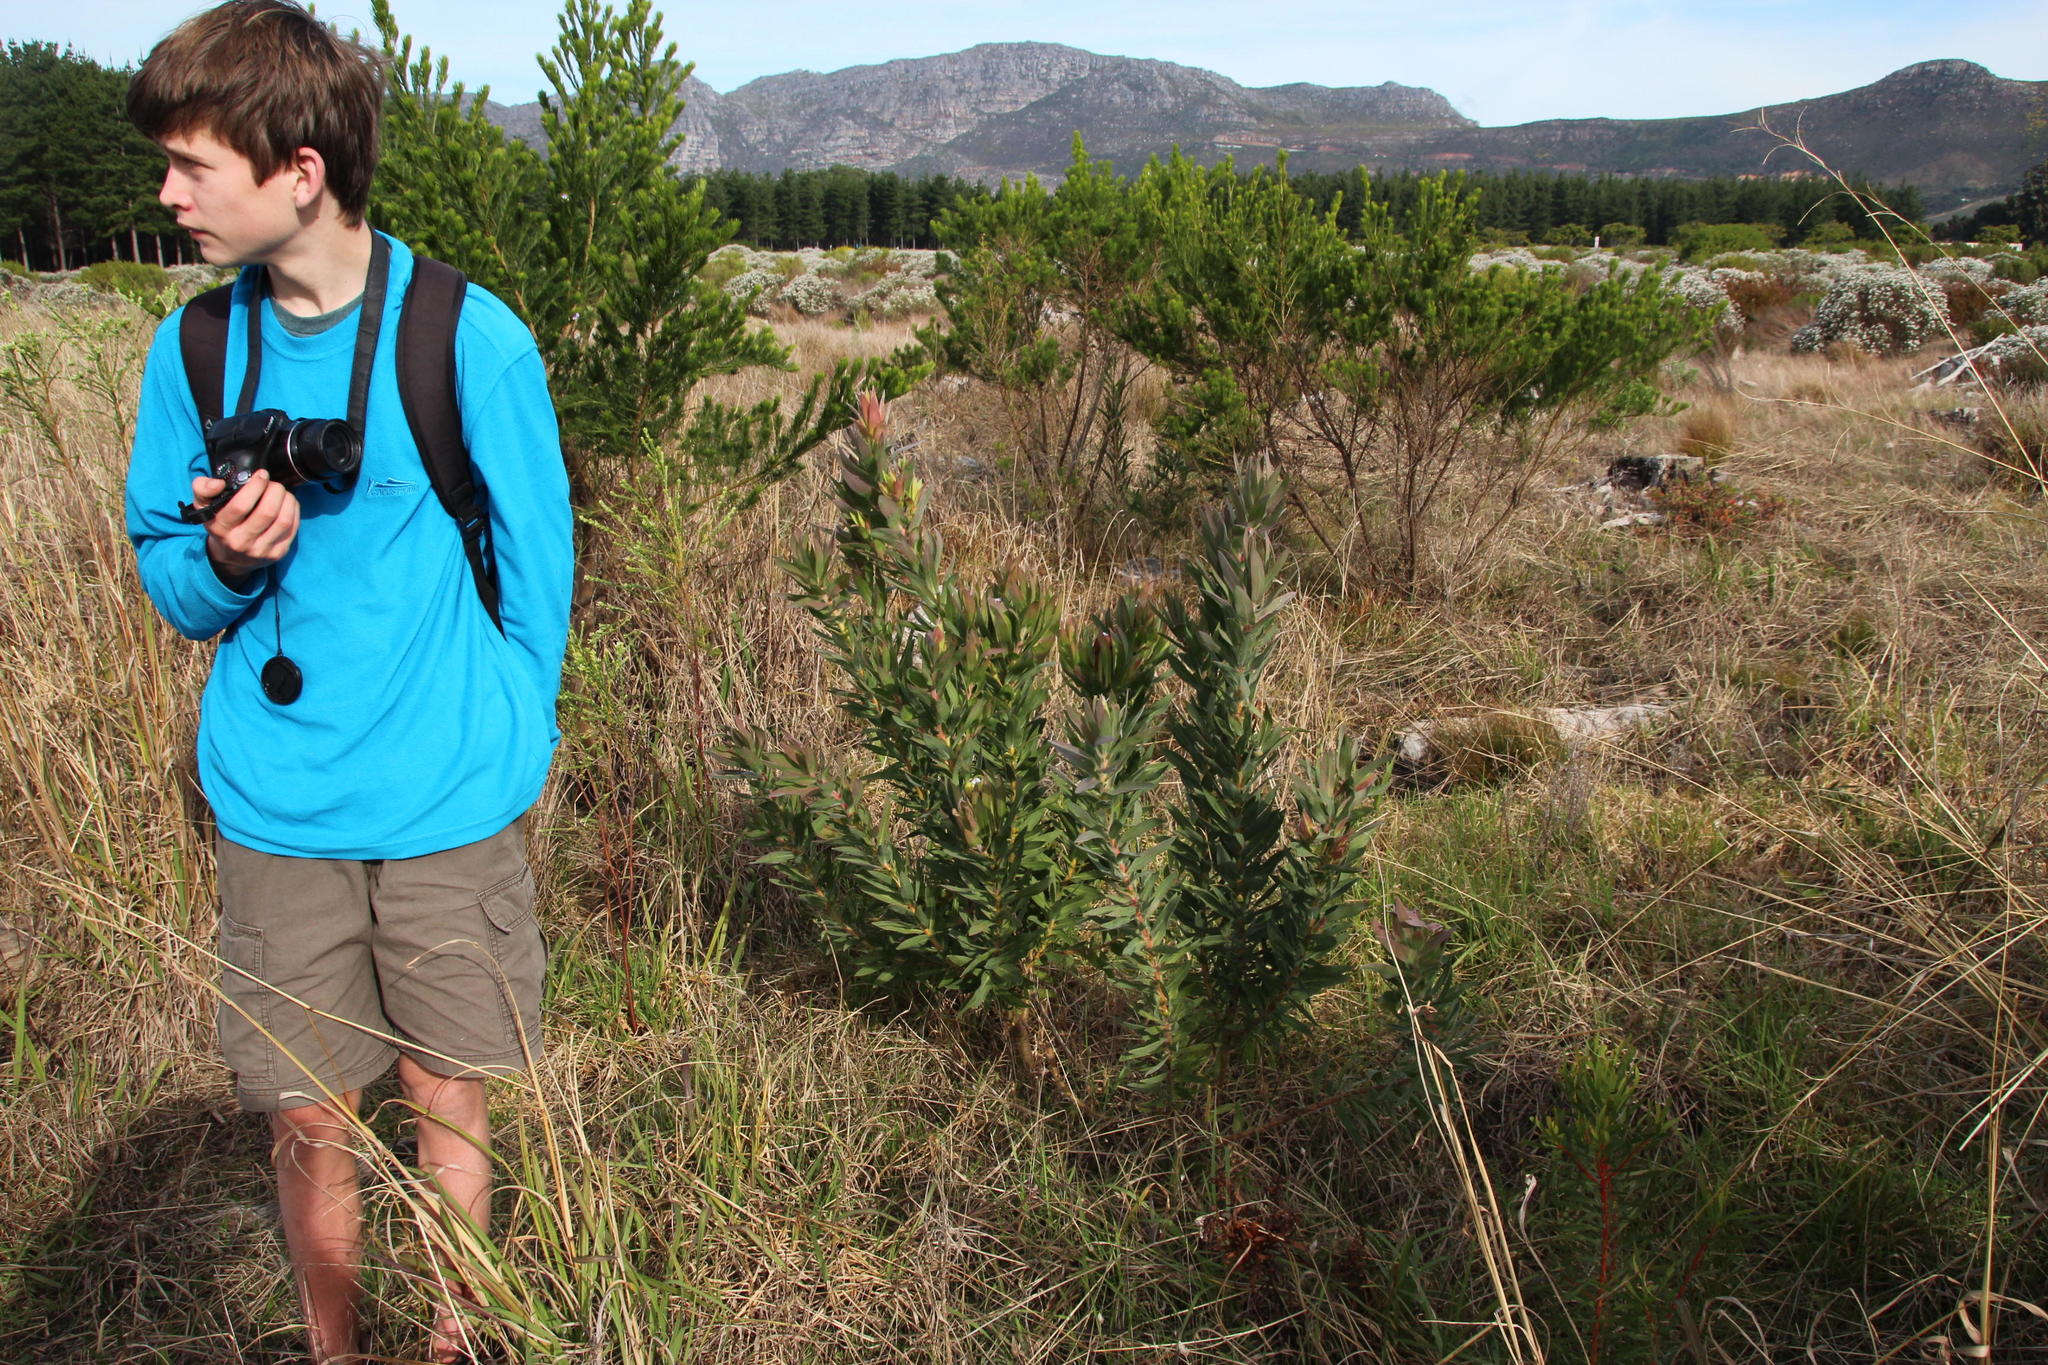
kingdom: Plantae
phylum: Tracheophyta
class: Magnoliopsida
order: Fabales
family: Fabaceae
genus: Acacia
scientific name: Acacia podalyriifolia
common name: Pearl wattle
